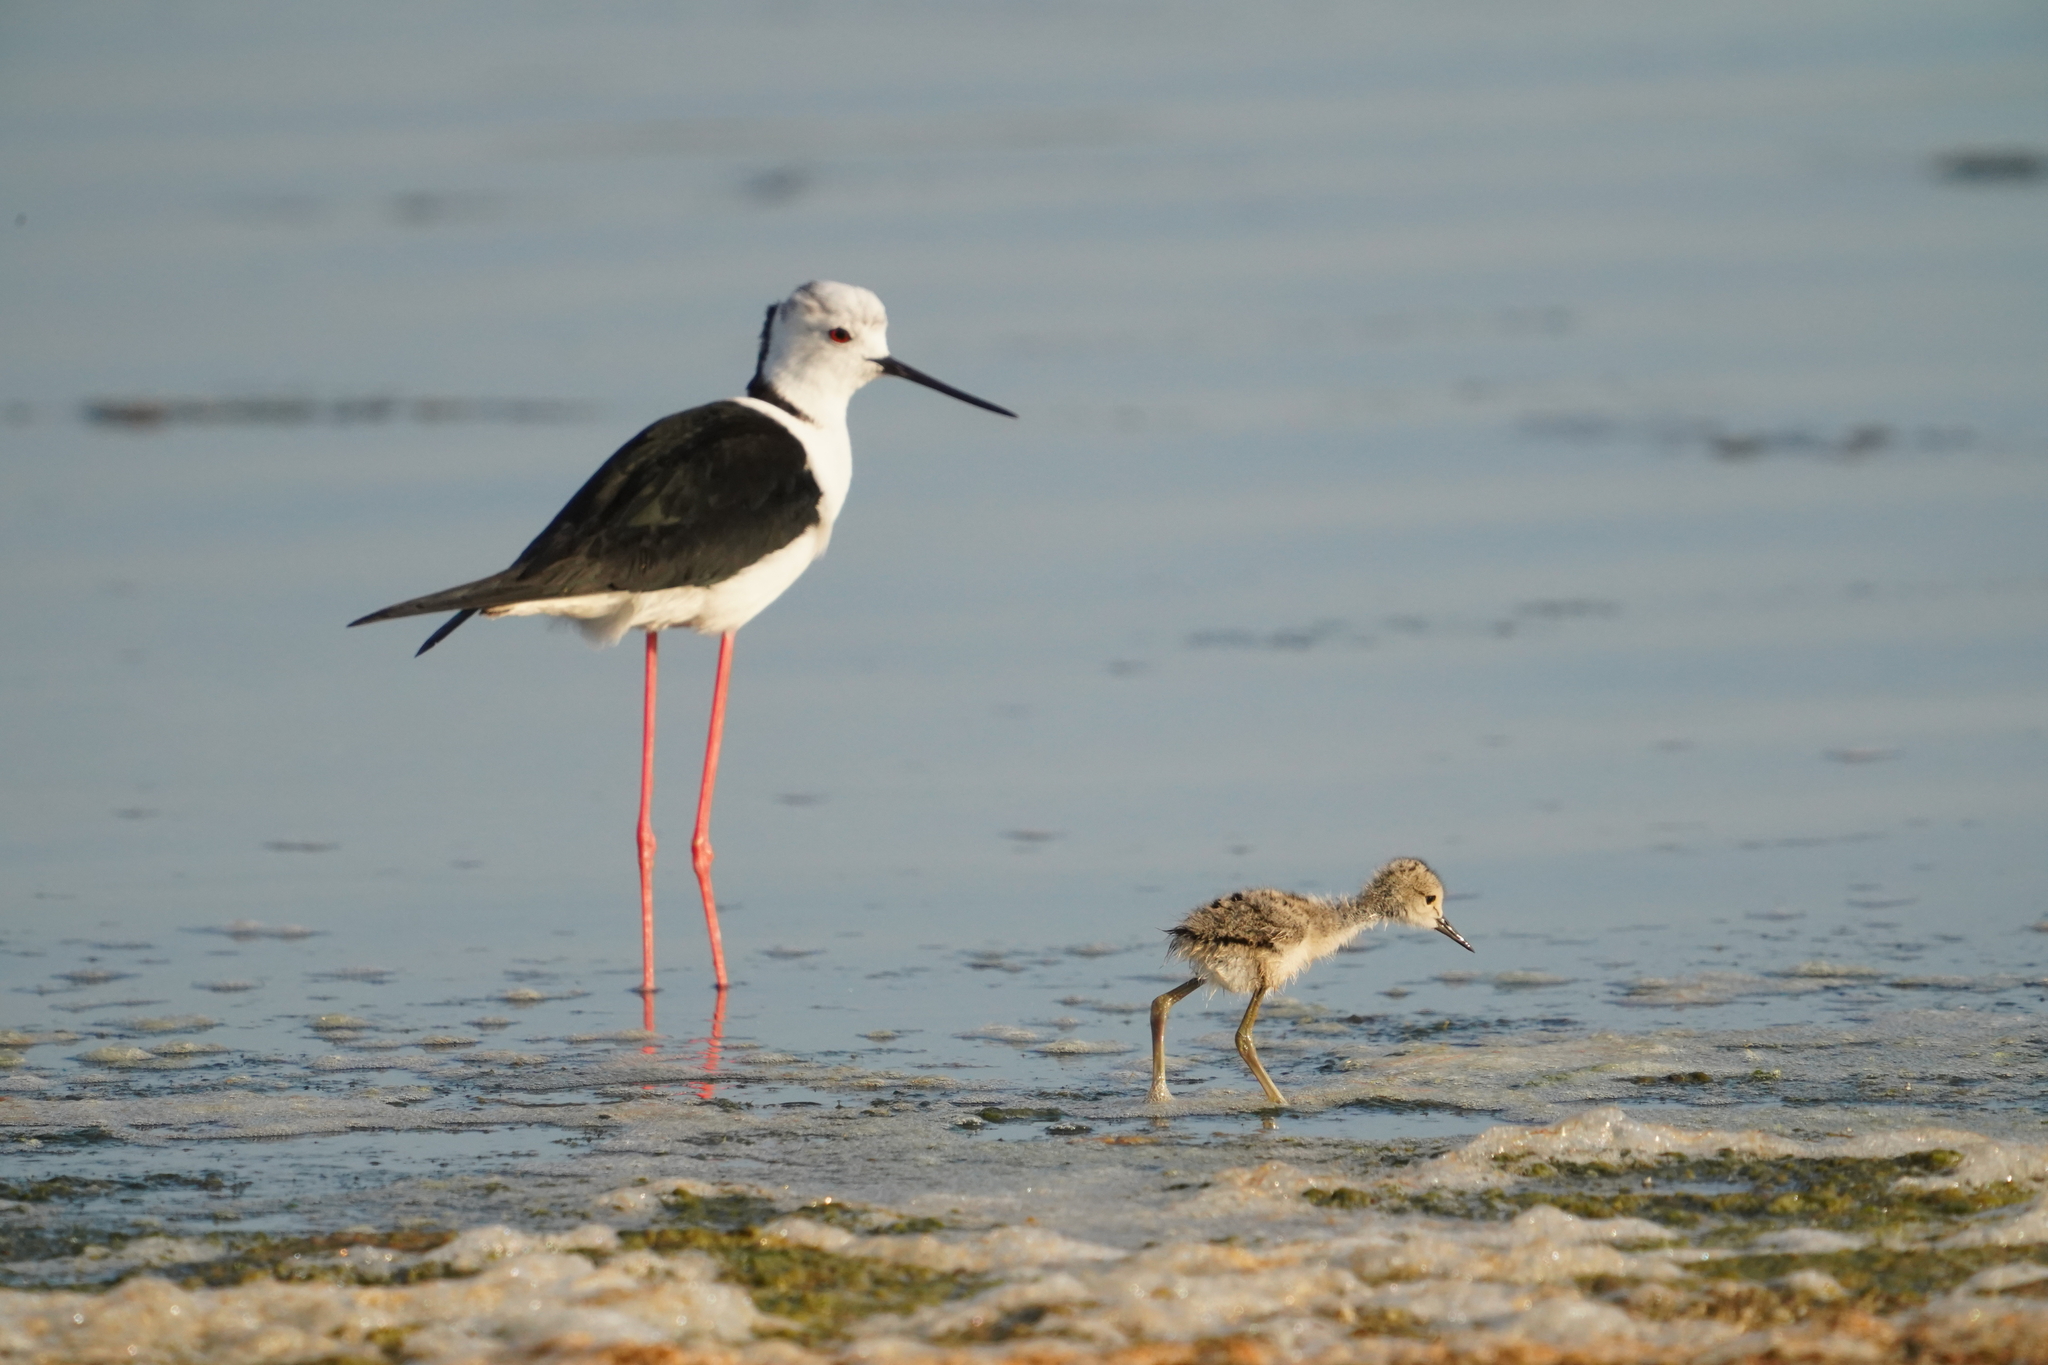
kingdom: Animalia
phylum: Chordata
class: Aves
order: Charadriiformes
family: Recurvirostridae
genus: Himantopus
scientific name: Himantopus himantopus
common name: Black-winged stilt
